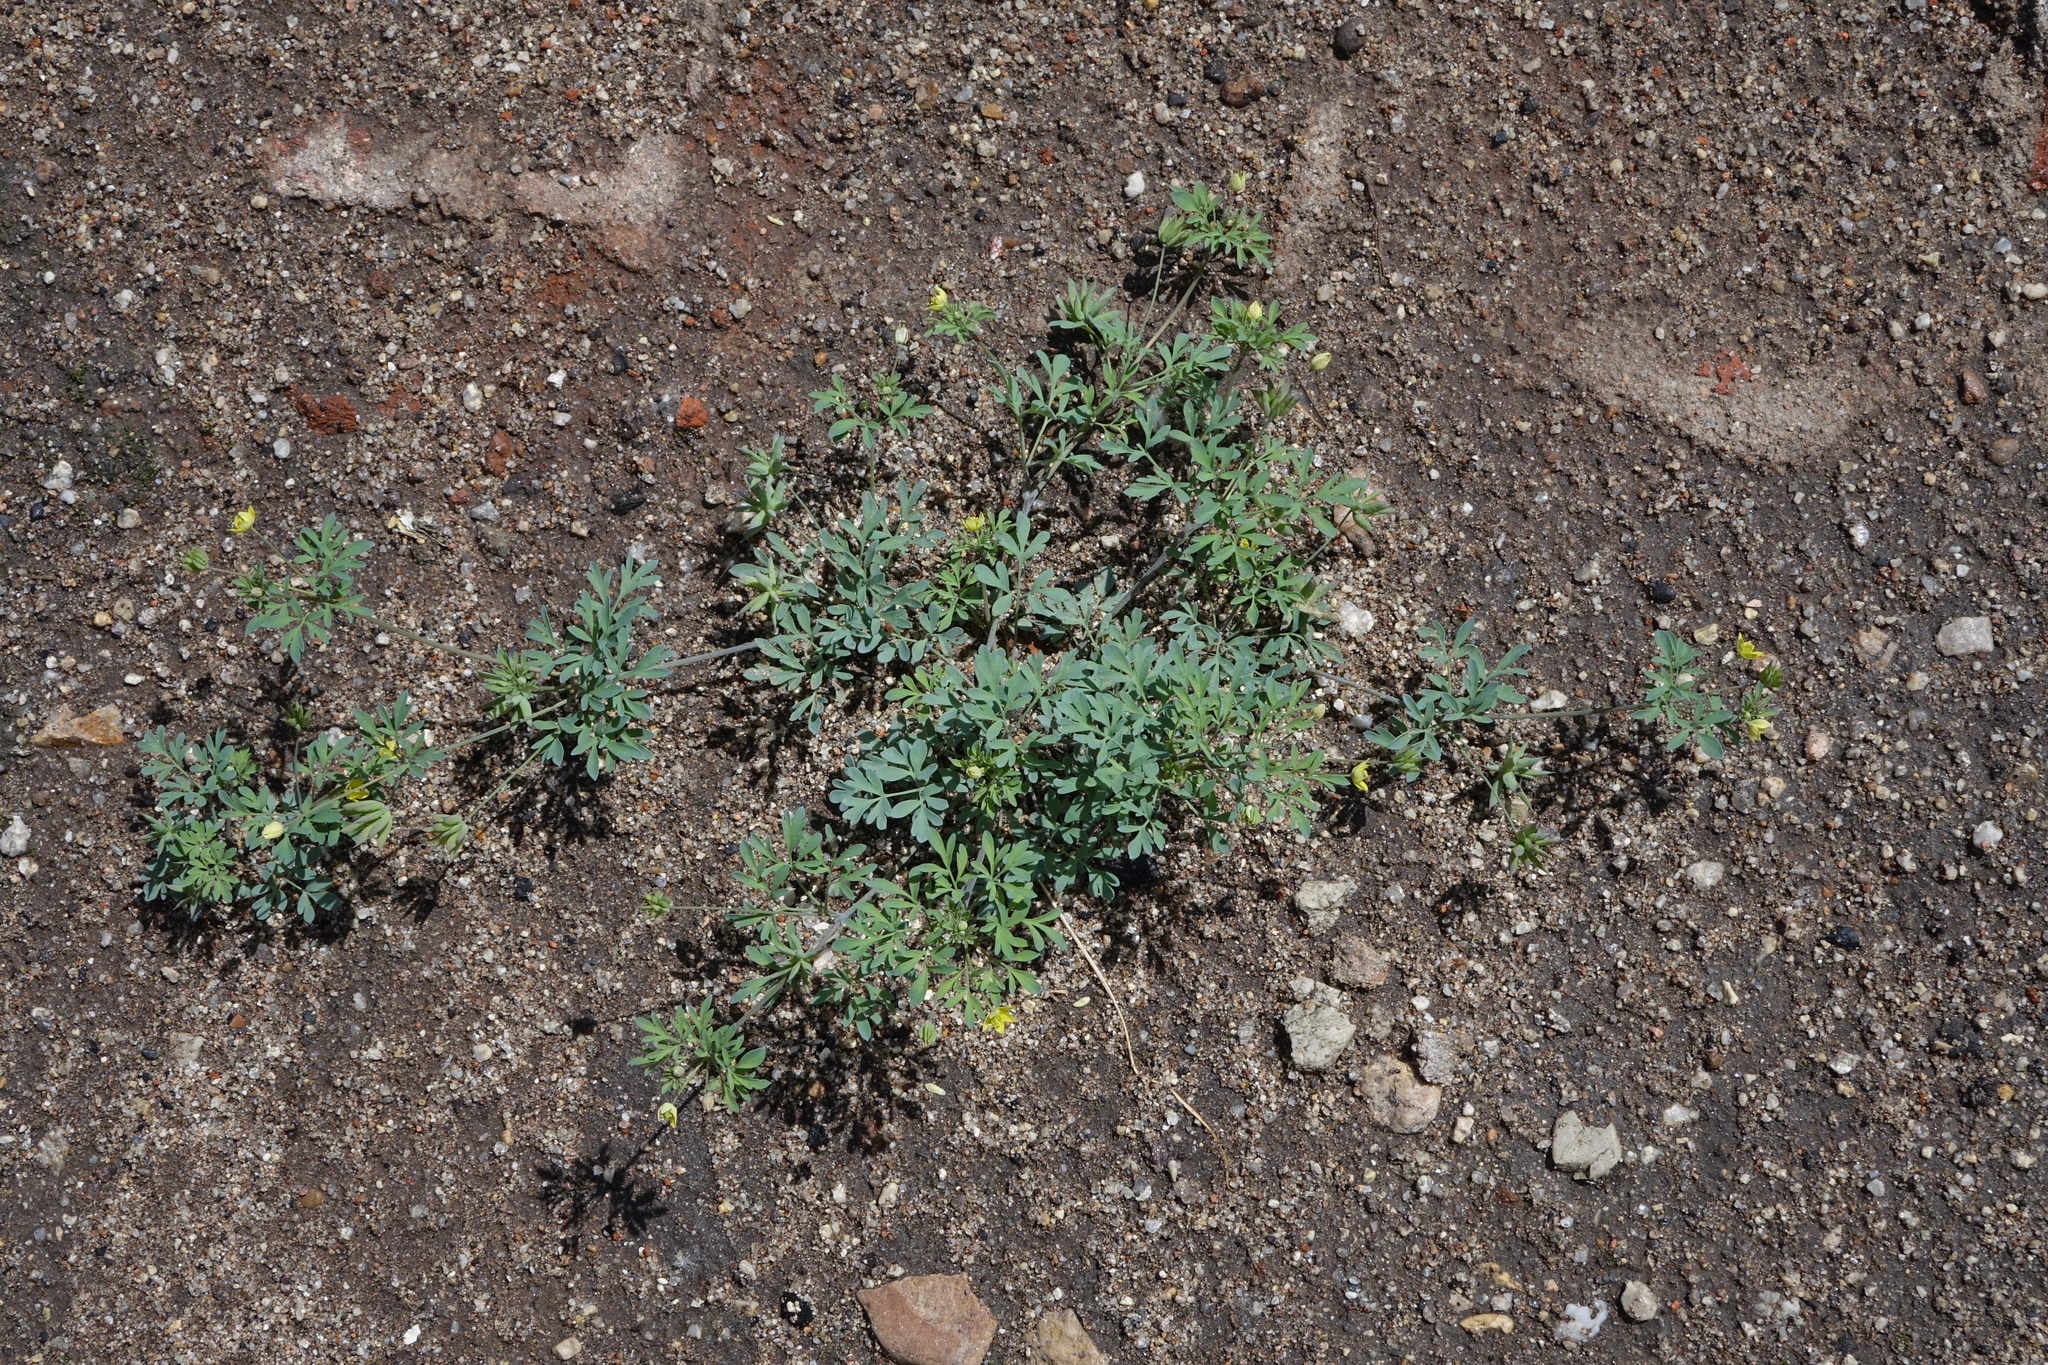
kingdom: Plantae
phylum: Tracheophyta
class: Magnoliopsida
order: Ranunculales
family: Ranunculaceae
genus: Leptopyrum
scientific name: Leptopyrum fumarioides
